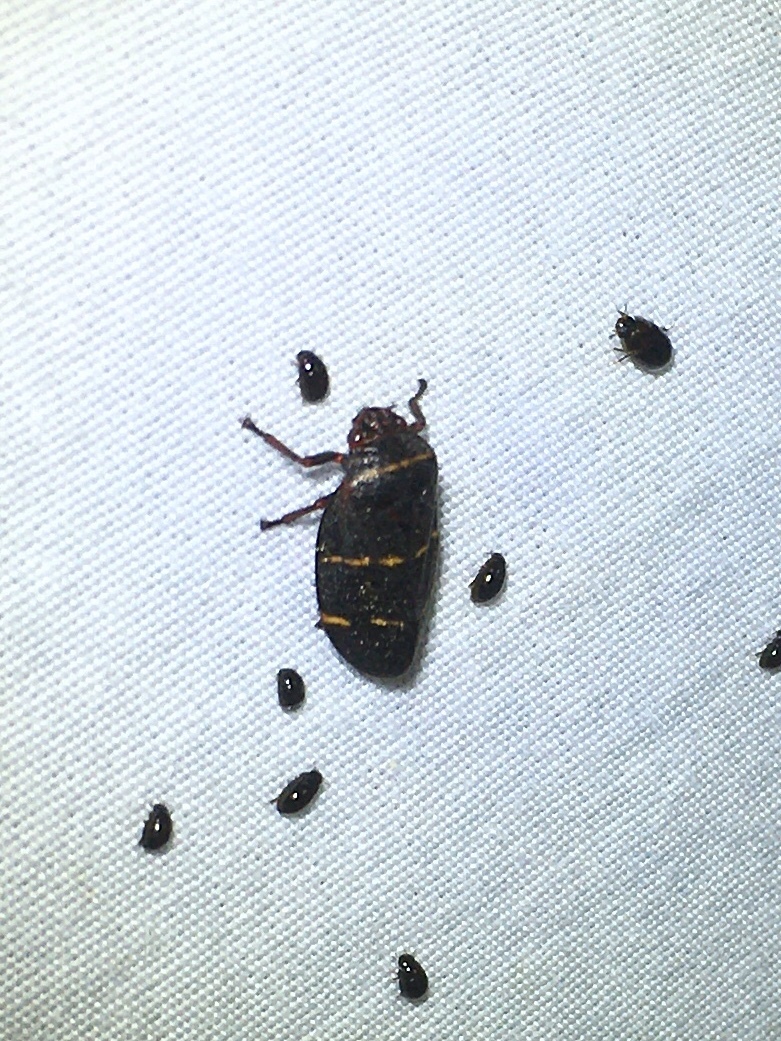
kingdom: Animalia
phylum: Arthropoda
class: Insecta
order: Hemiptera
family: Cercopidae
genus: Prosapia
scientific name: Prosapia bicincta
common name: Twolined spittlebug
